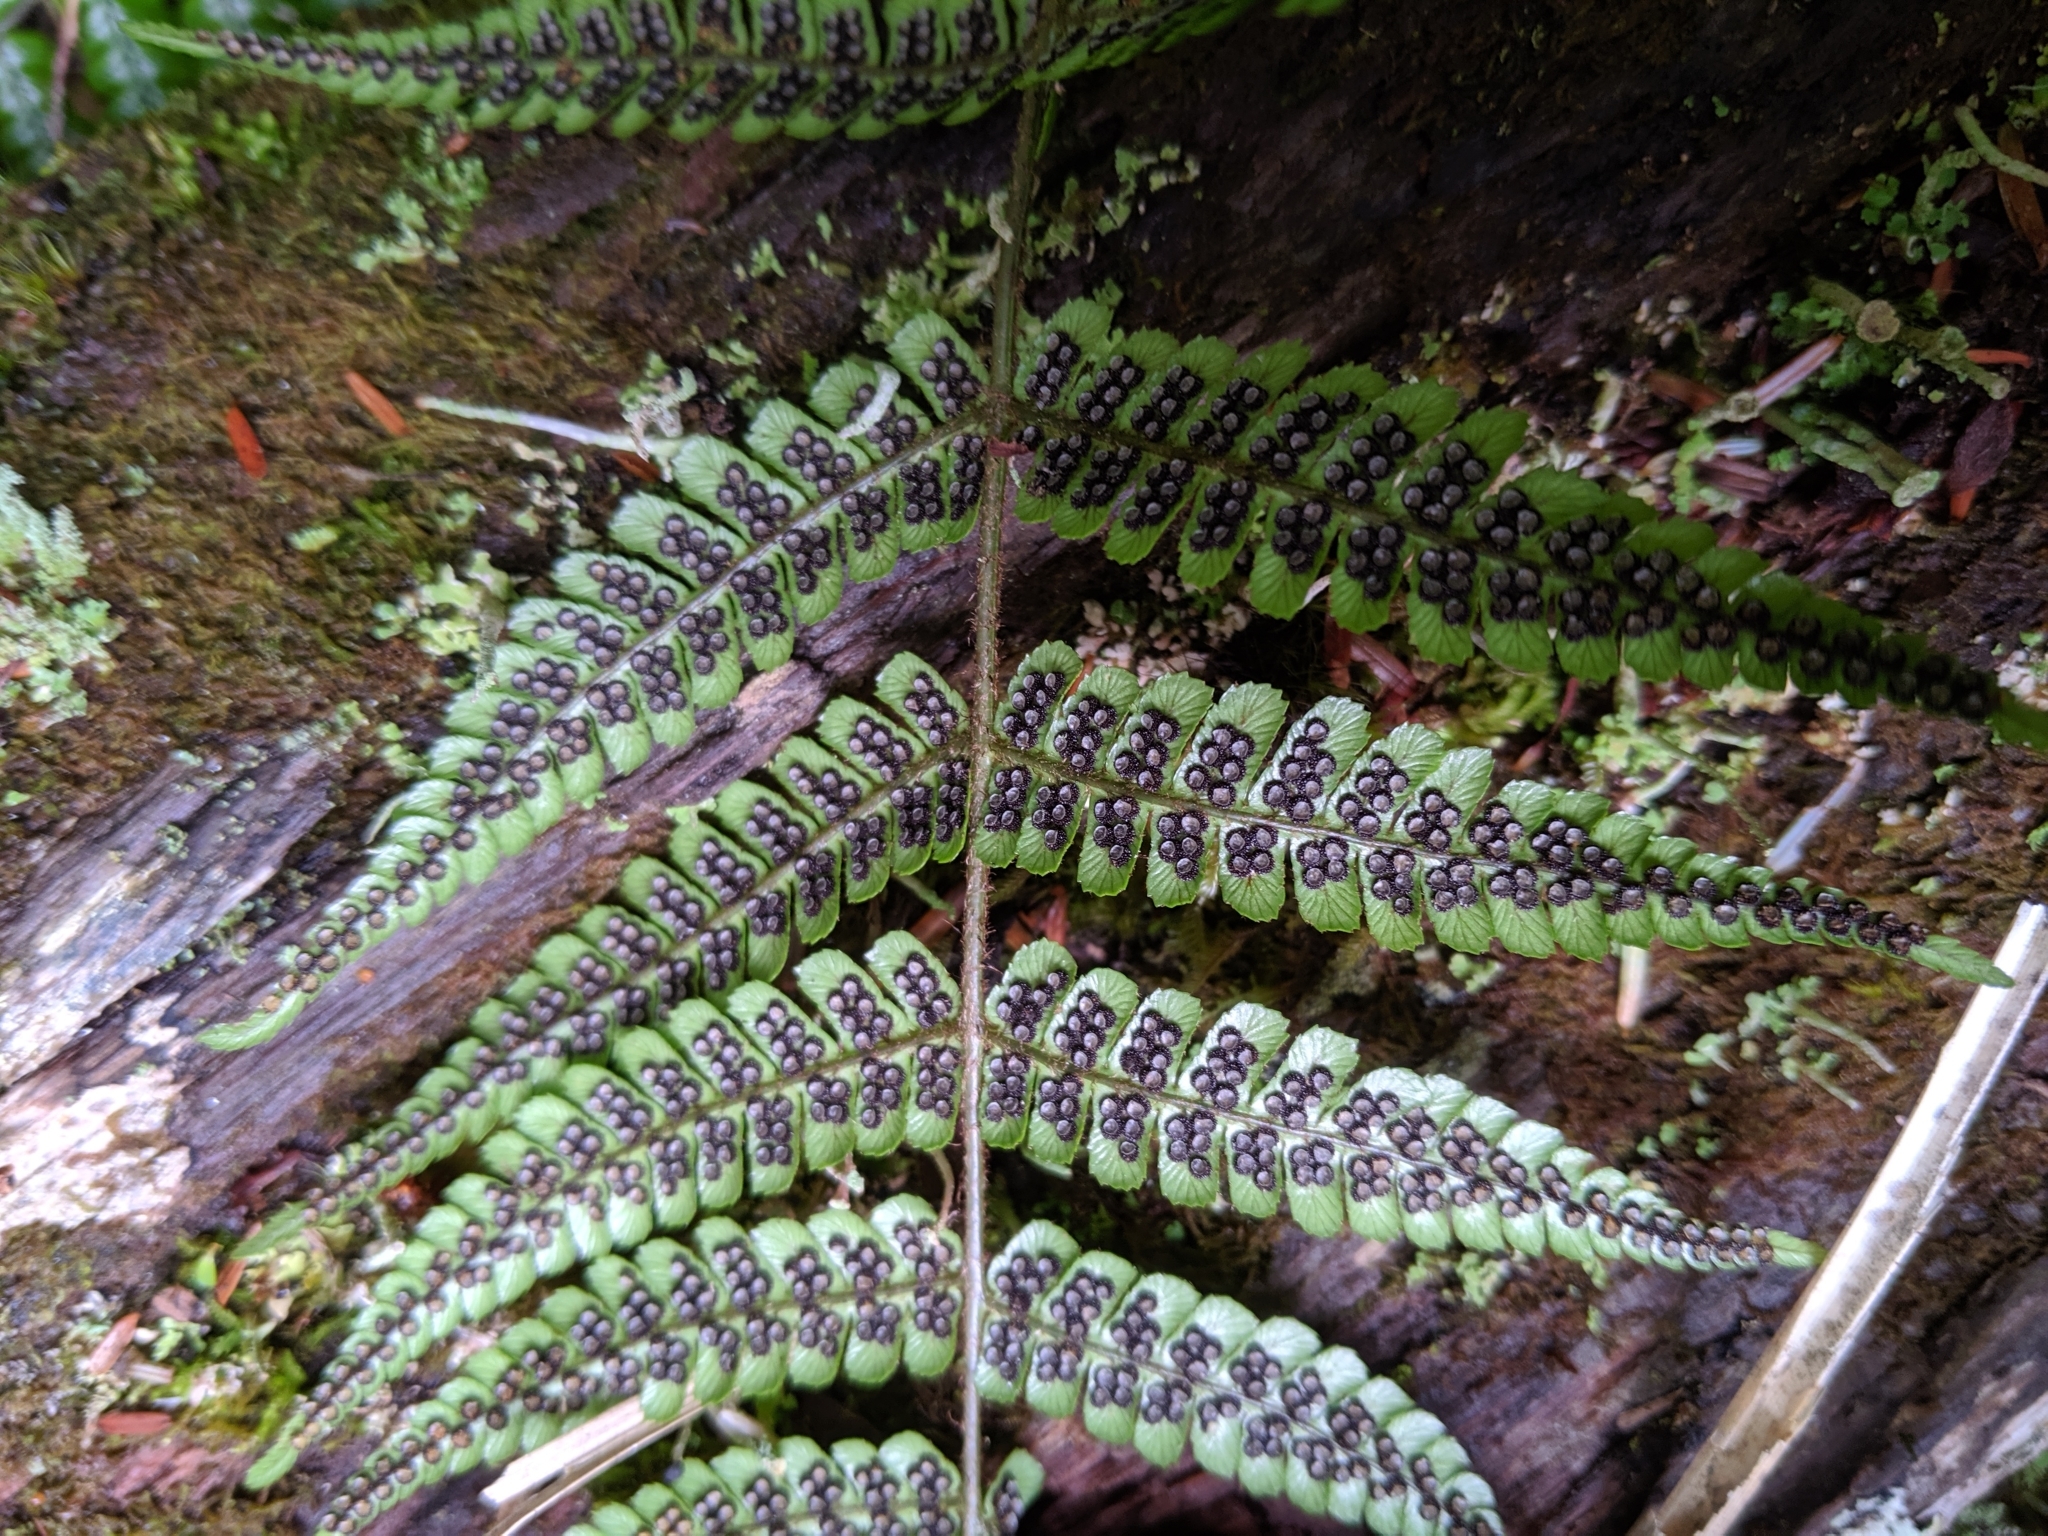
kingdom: Plantae
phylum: Tracheophyta
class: Polypodiopsida
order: Polypodiales
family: Dryopteridaceae
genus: Dryopteris
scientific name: Dryopteris lepidopoda
